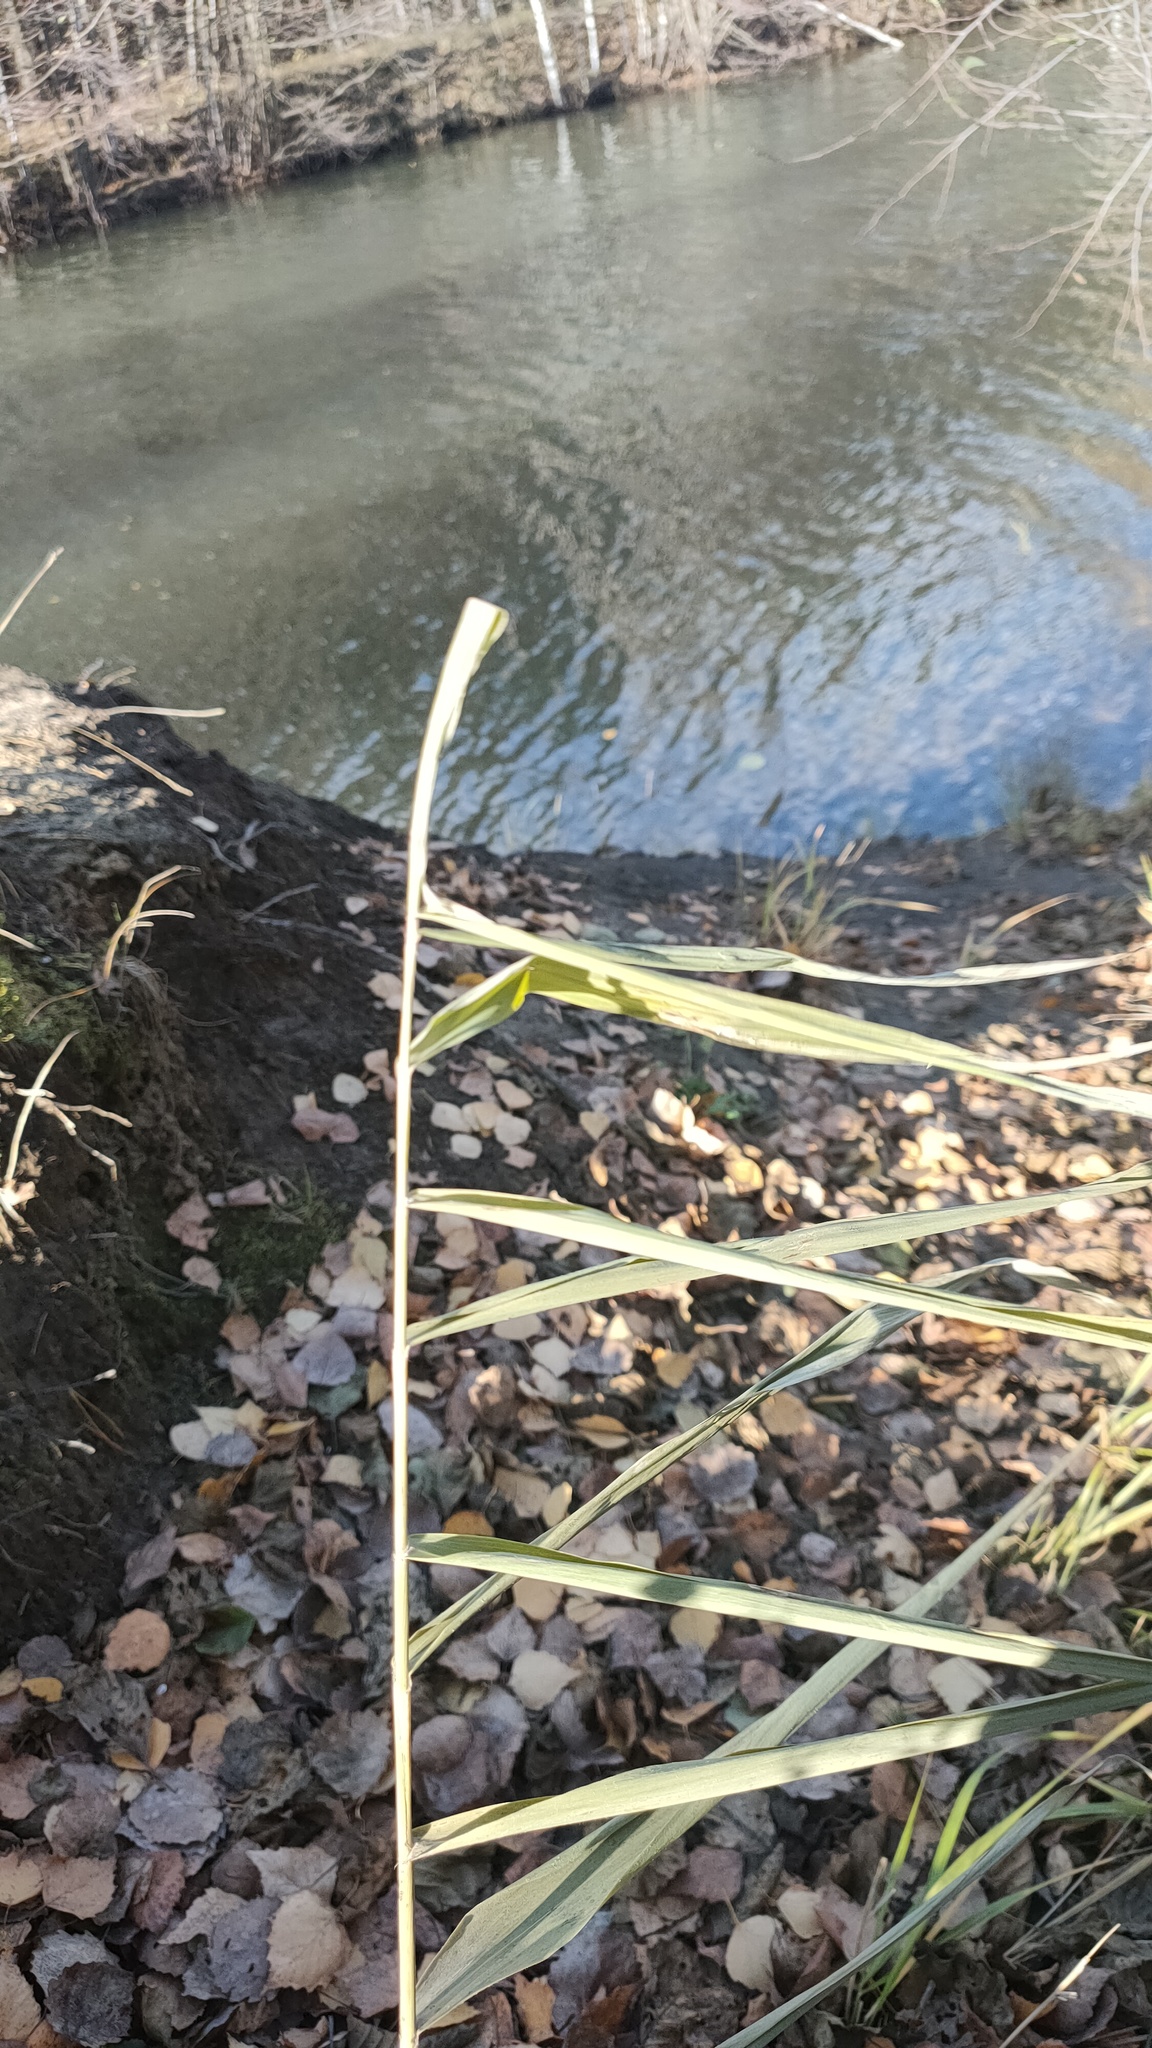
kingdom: Plantae
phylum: Tracheophyta
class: Liliopsida
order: Poales
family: Poaceae
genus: Phragmites
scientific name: Phragmites australis
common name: Common reed
